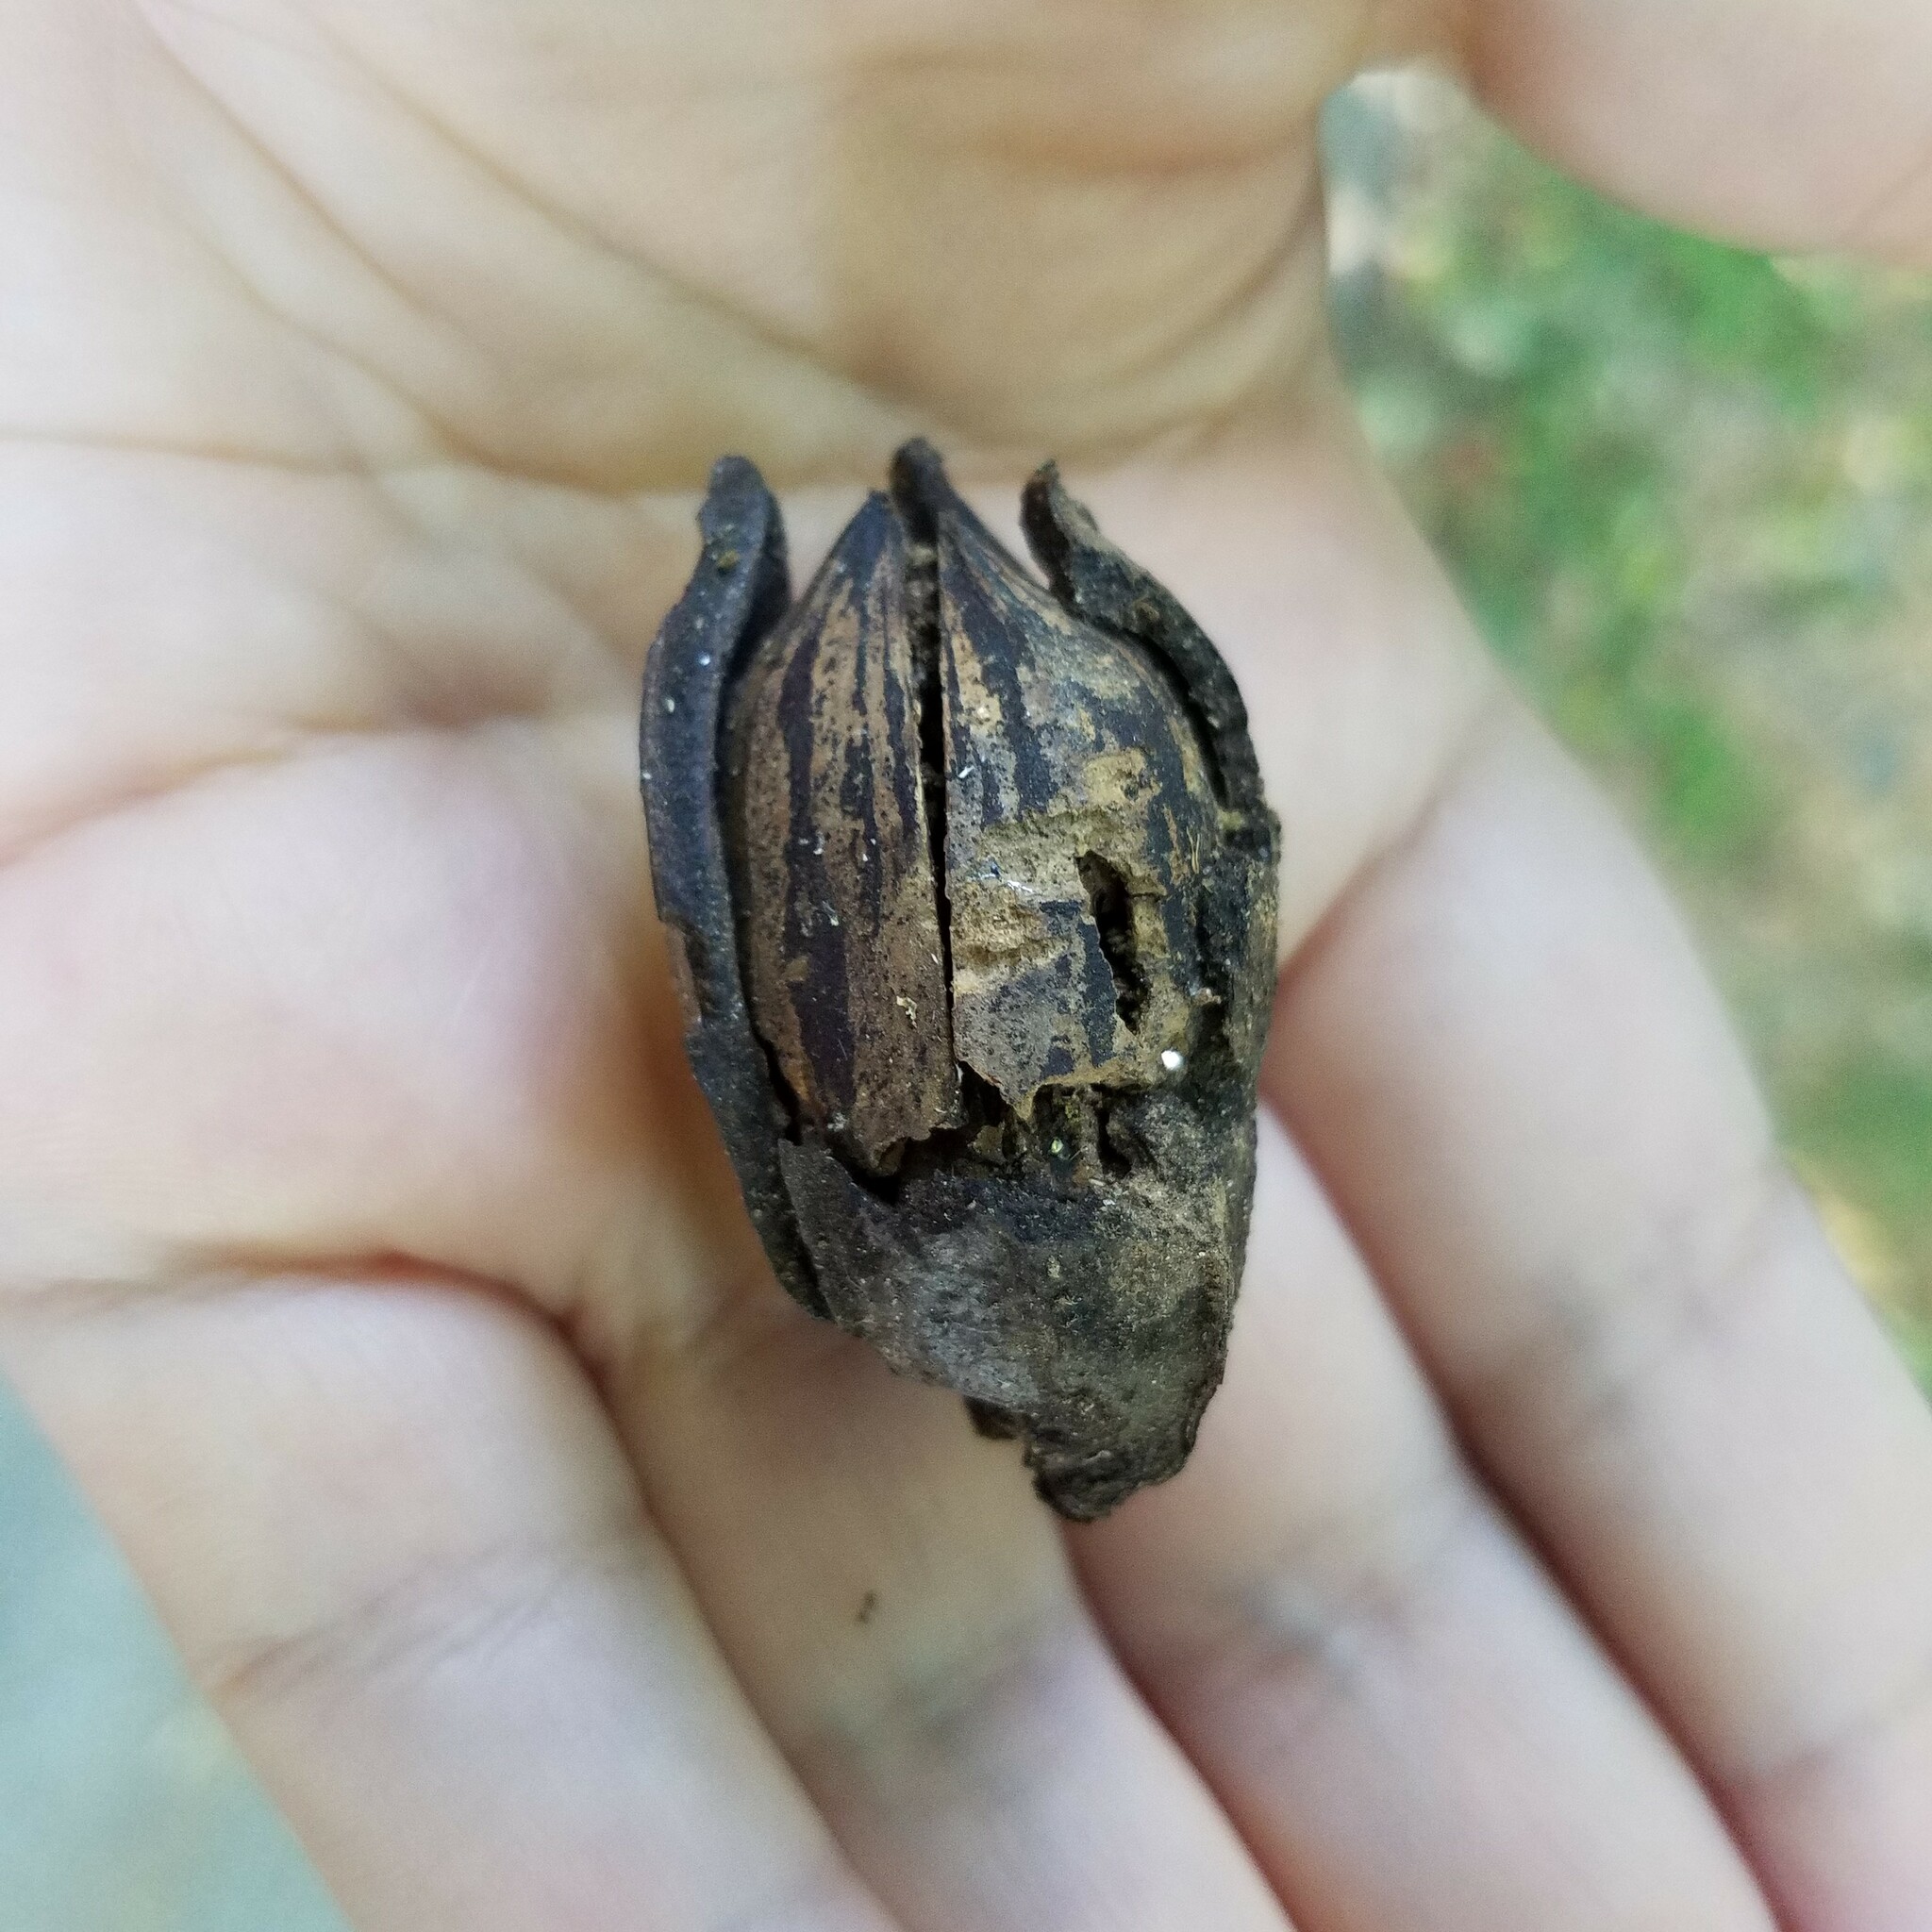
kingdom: Plantae
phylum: Tracheophyta
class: Magnoliopsida
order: Fagales
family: Juglandaceae
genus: Carya
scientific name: Carya illinoinensis
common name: Pecan
